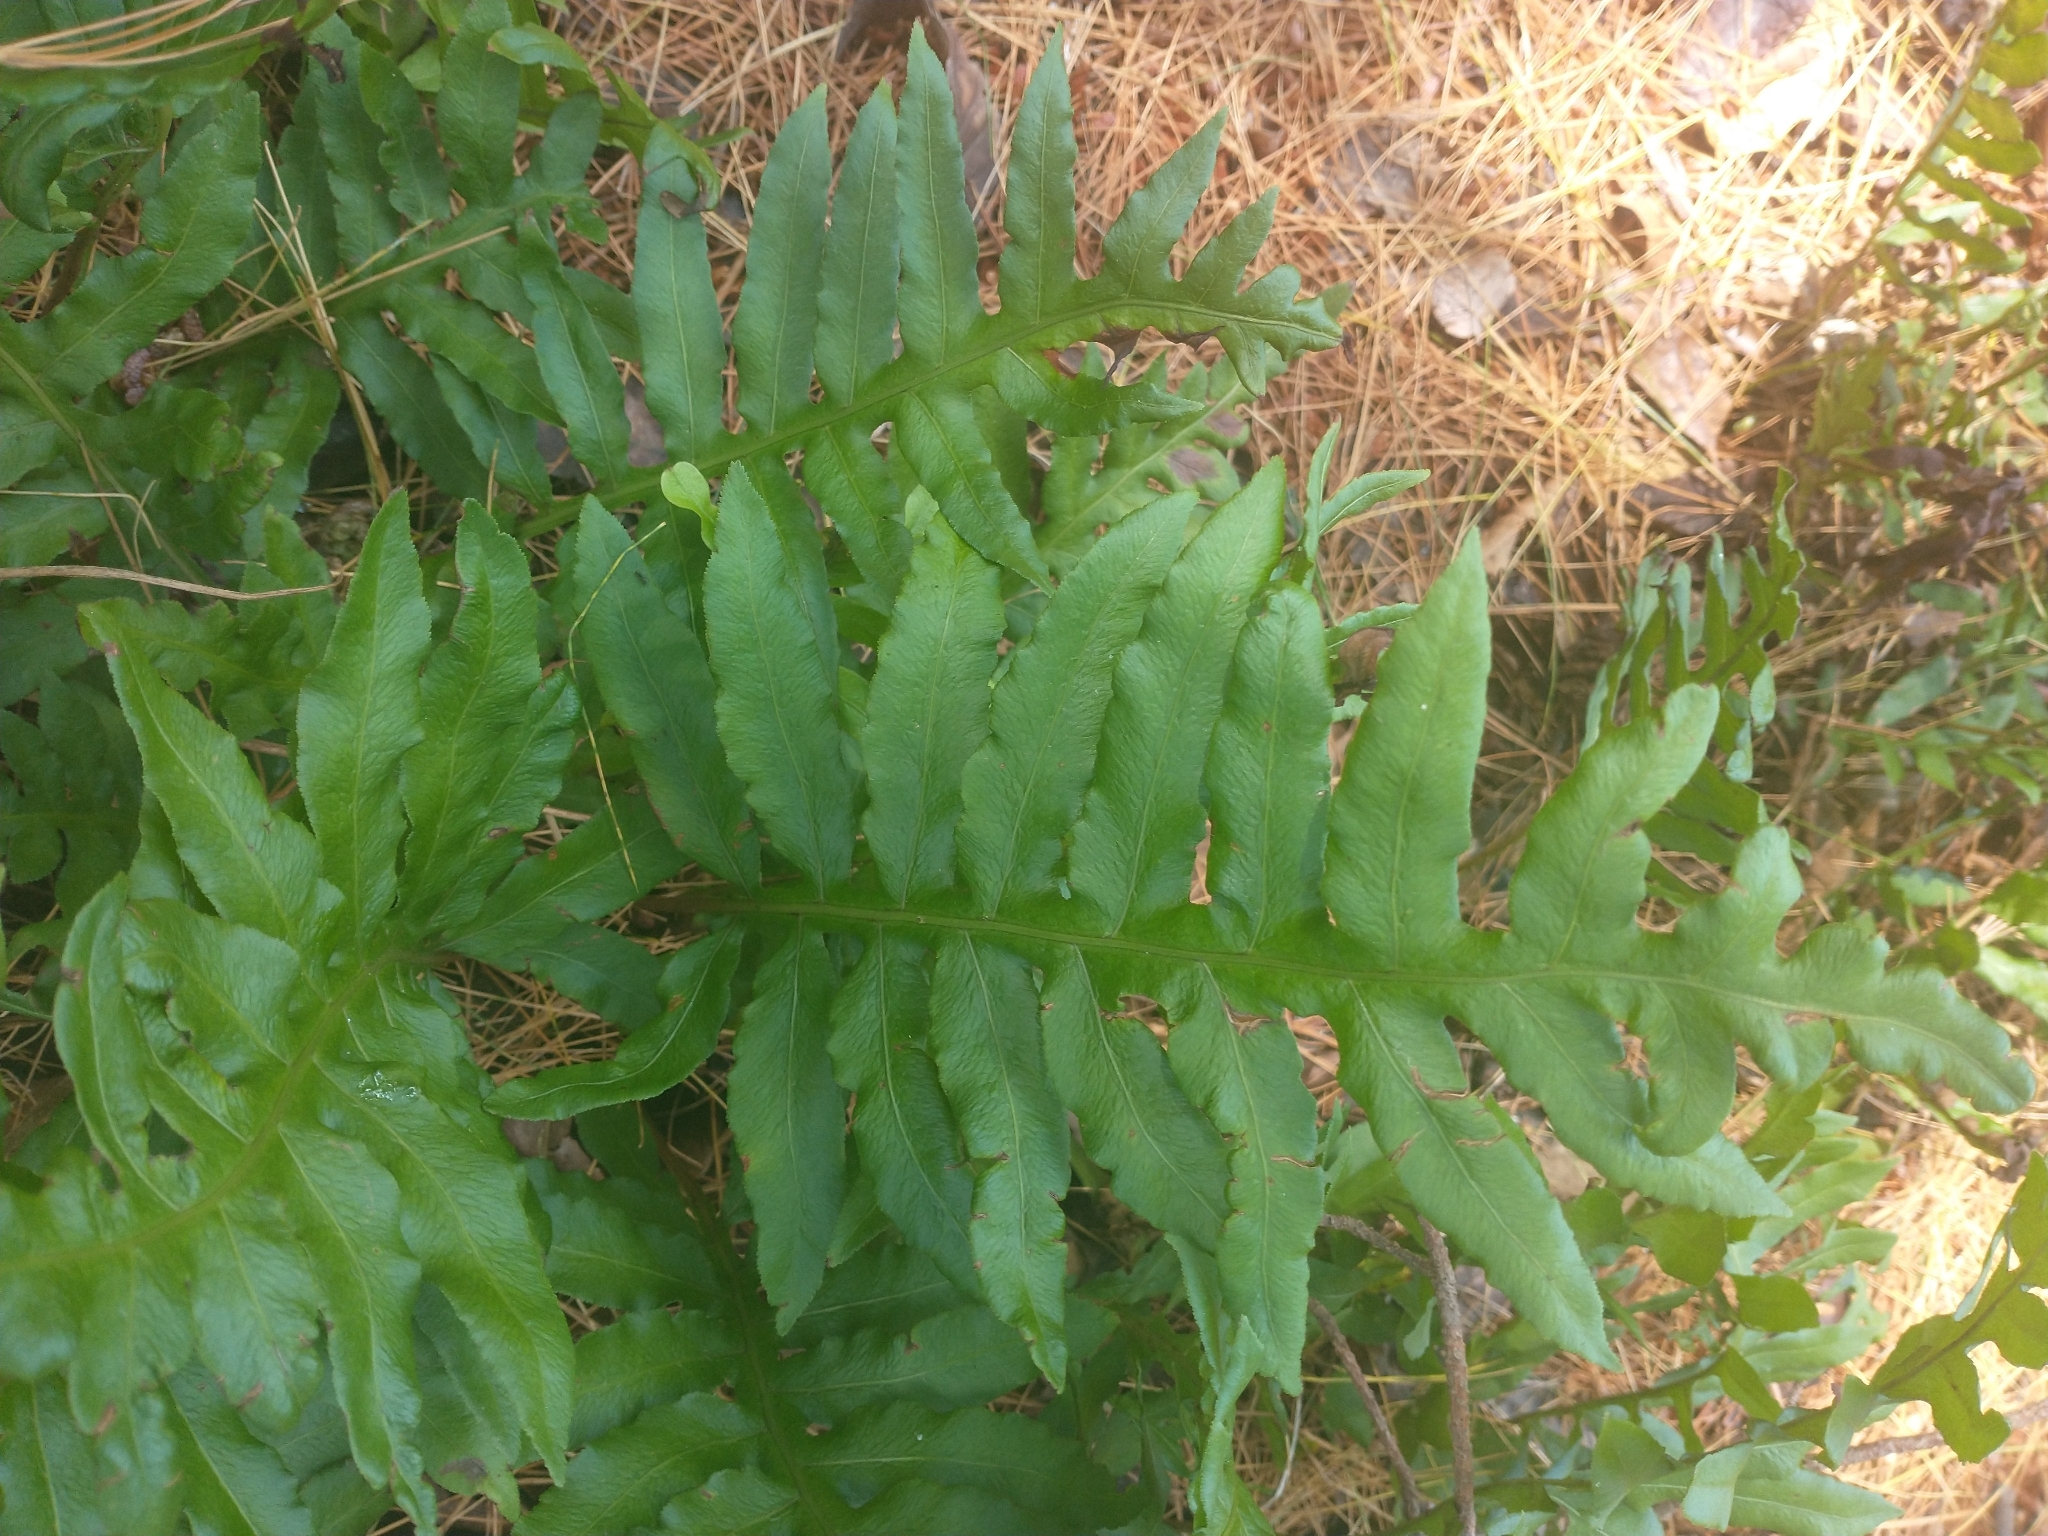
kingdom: Plantae
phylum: Tracheophyta
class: Polypodiopsida
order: Polypodiales
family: Blechnaceae
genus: Lorinseria
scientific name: Lorinseria areolata
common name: Dwarf chain fern
